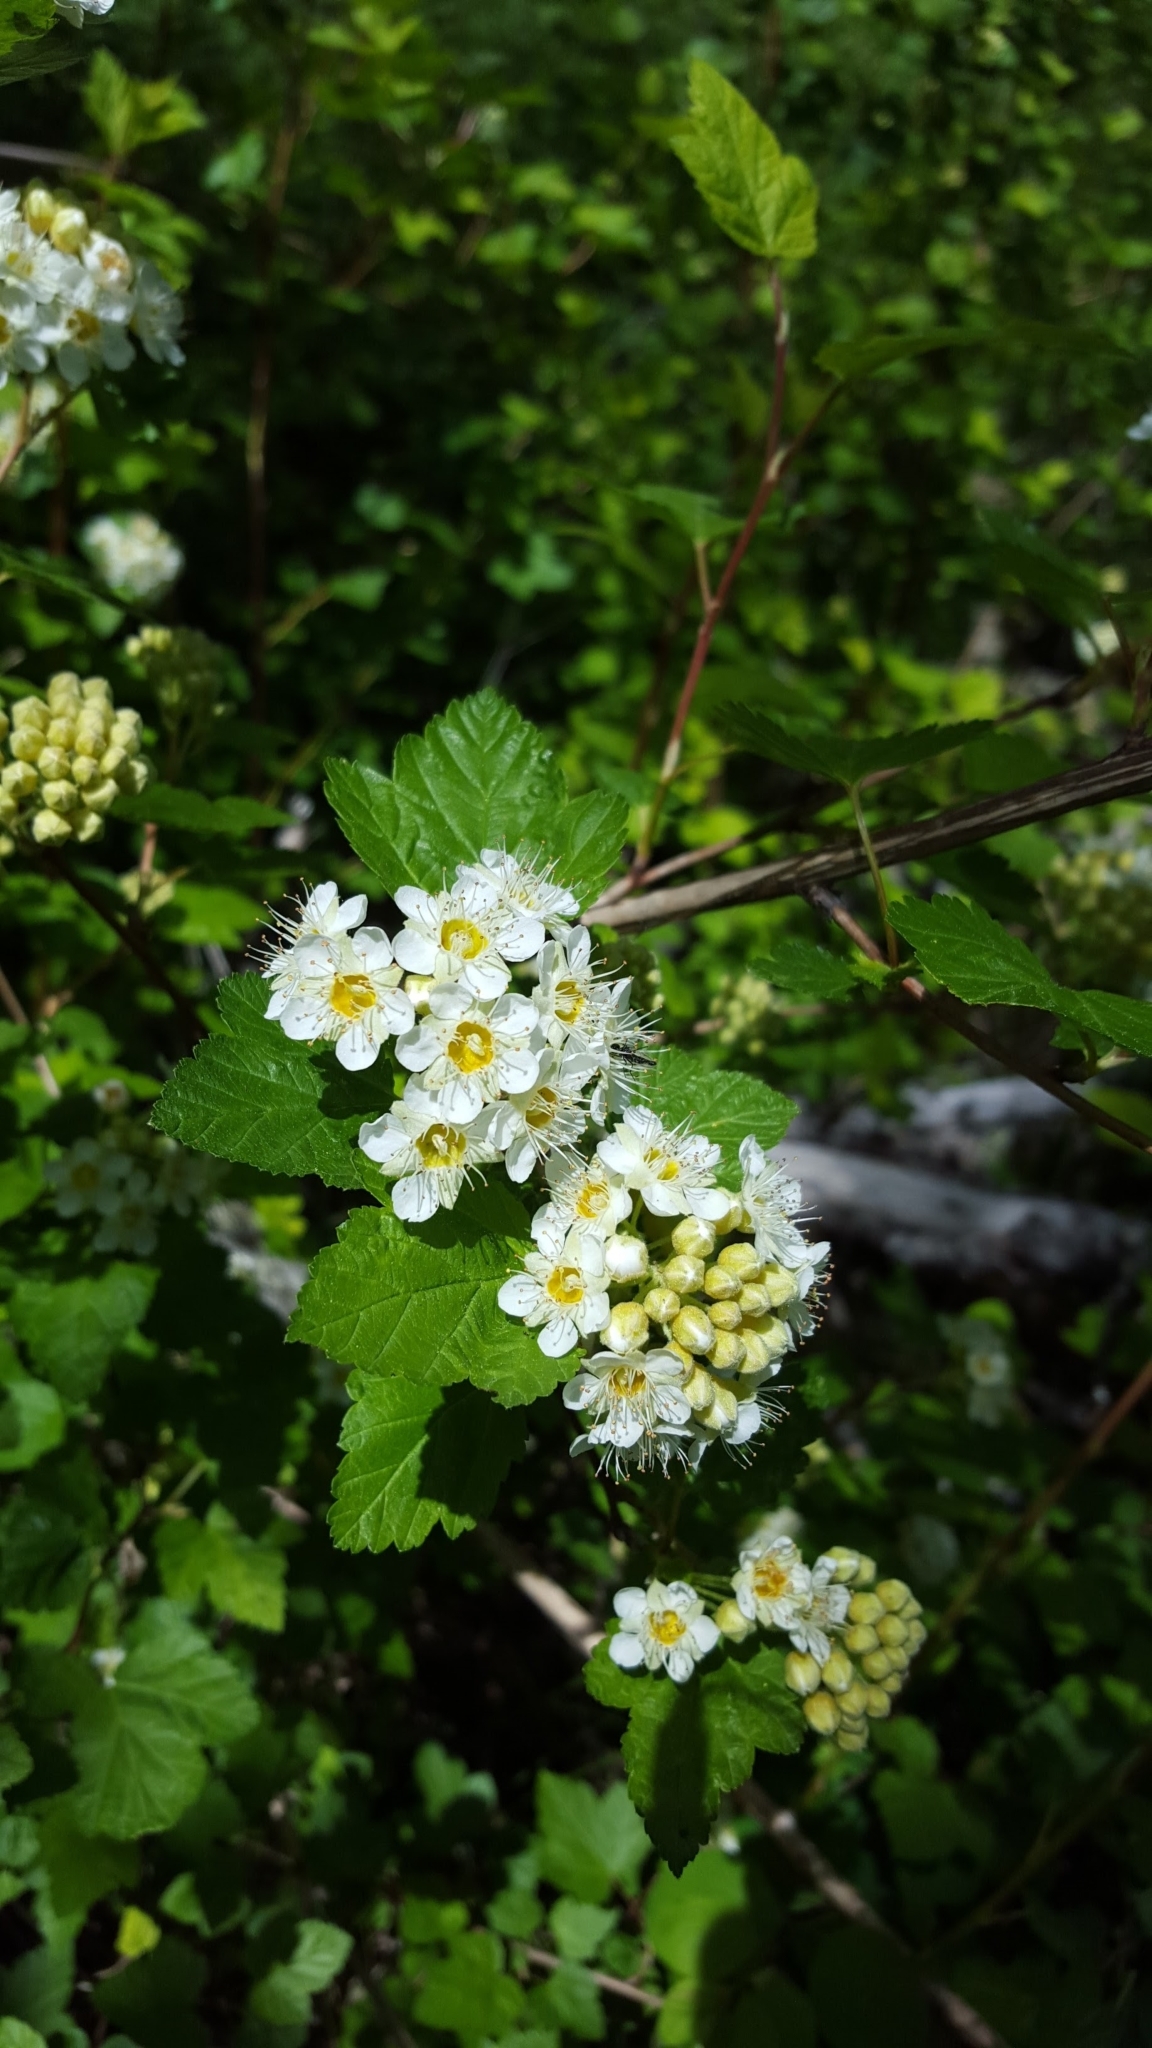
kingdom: Plantae
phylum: Tracheophyta
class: Magnoliopsida
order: Rosales
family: Rosaceae
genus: Physocarpus
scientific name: Physocarpus malvaceus
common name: Mallow ninebark
